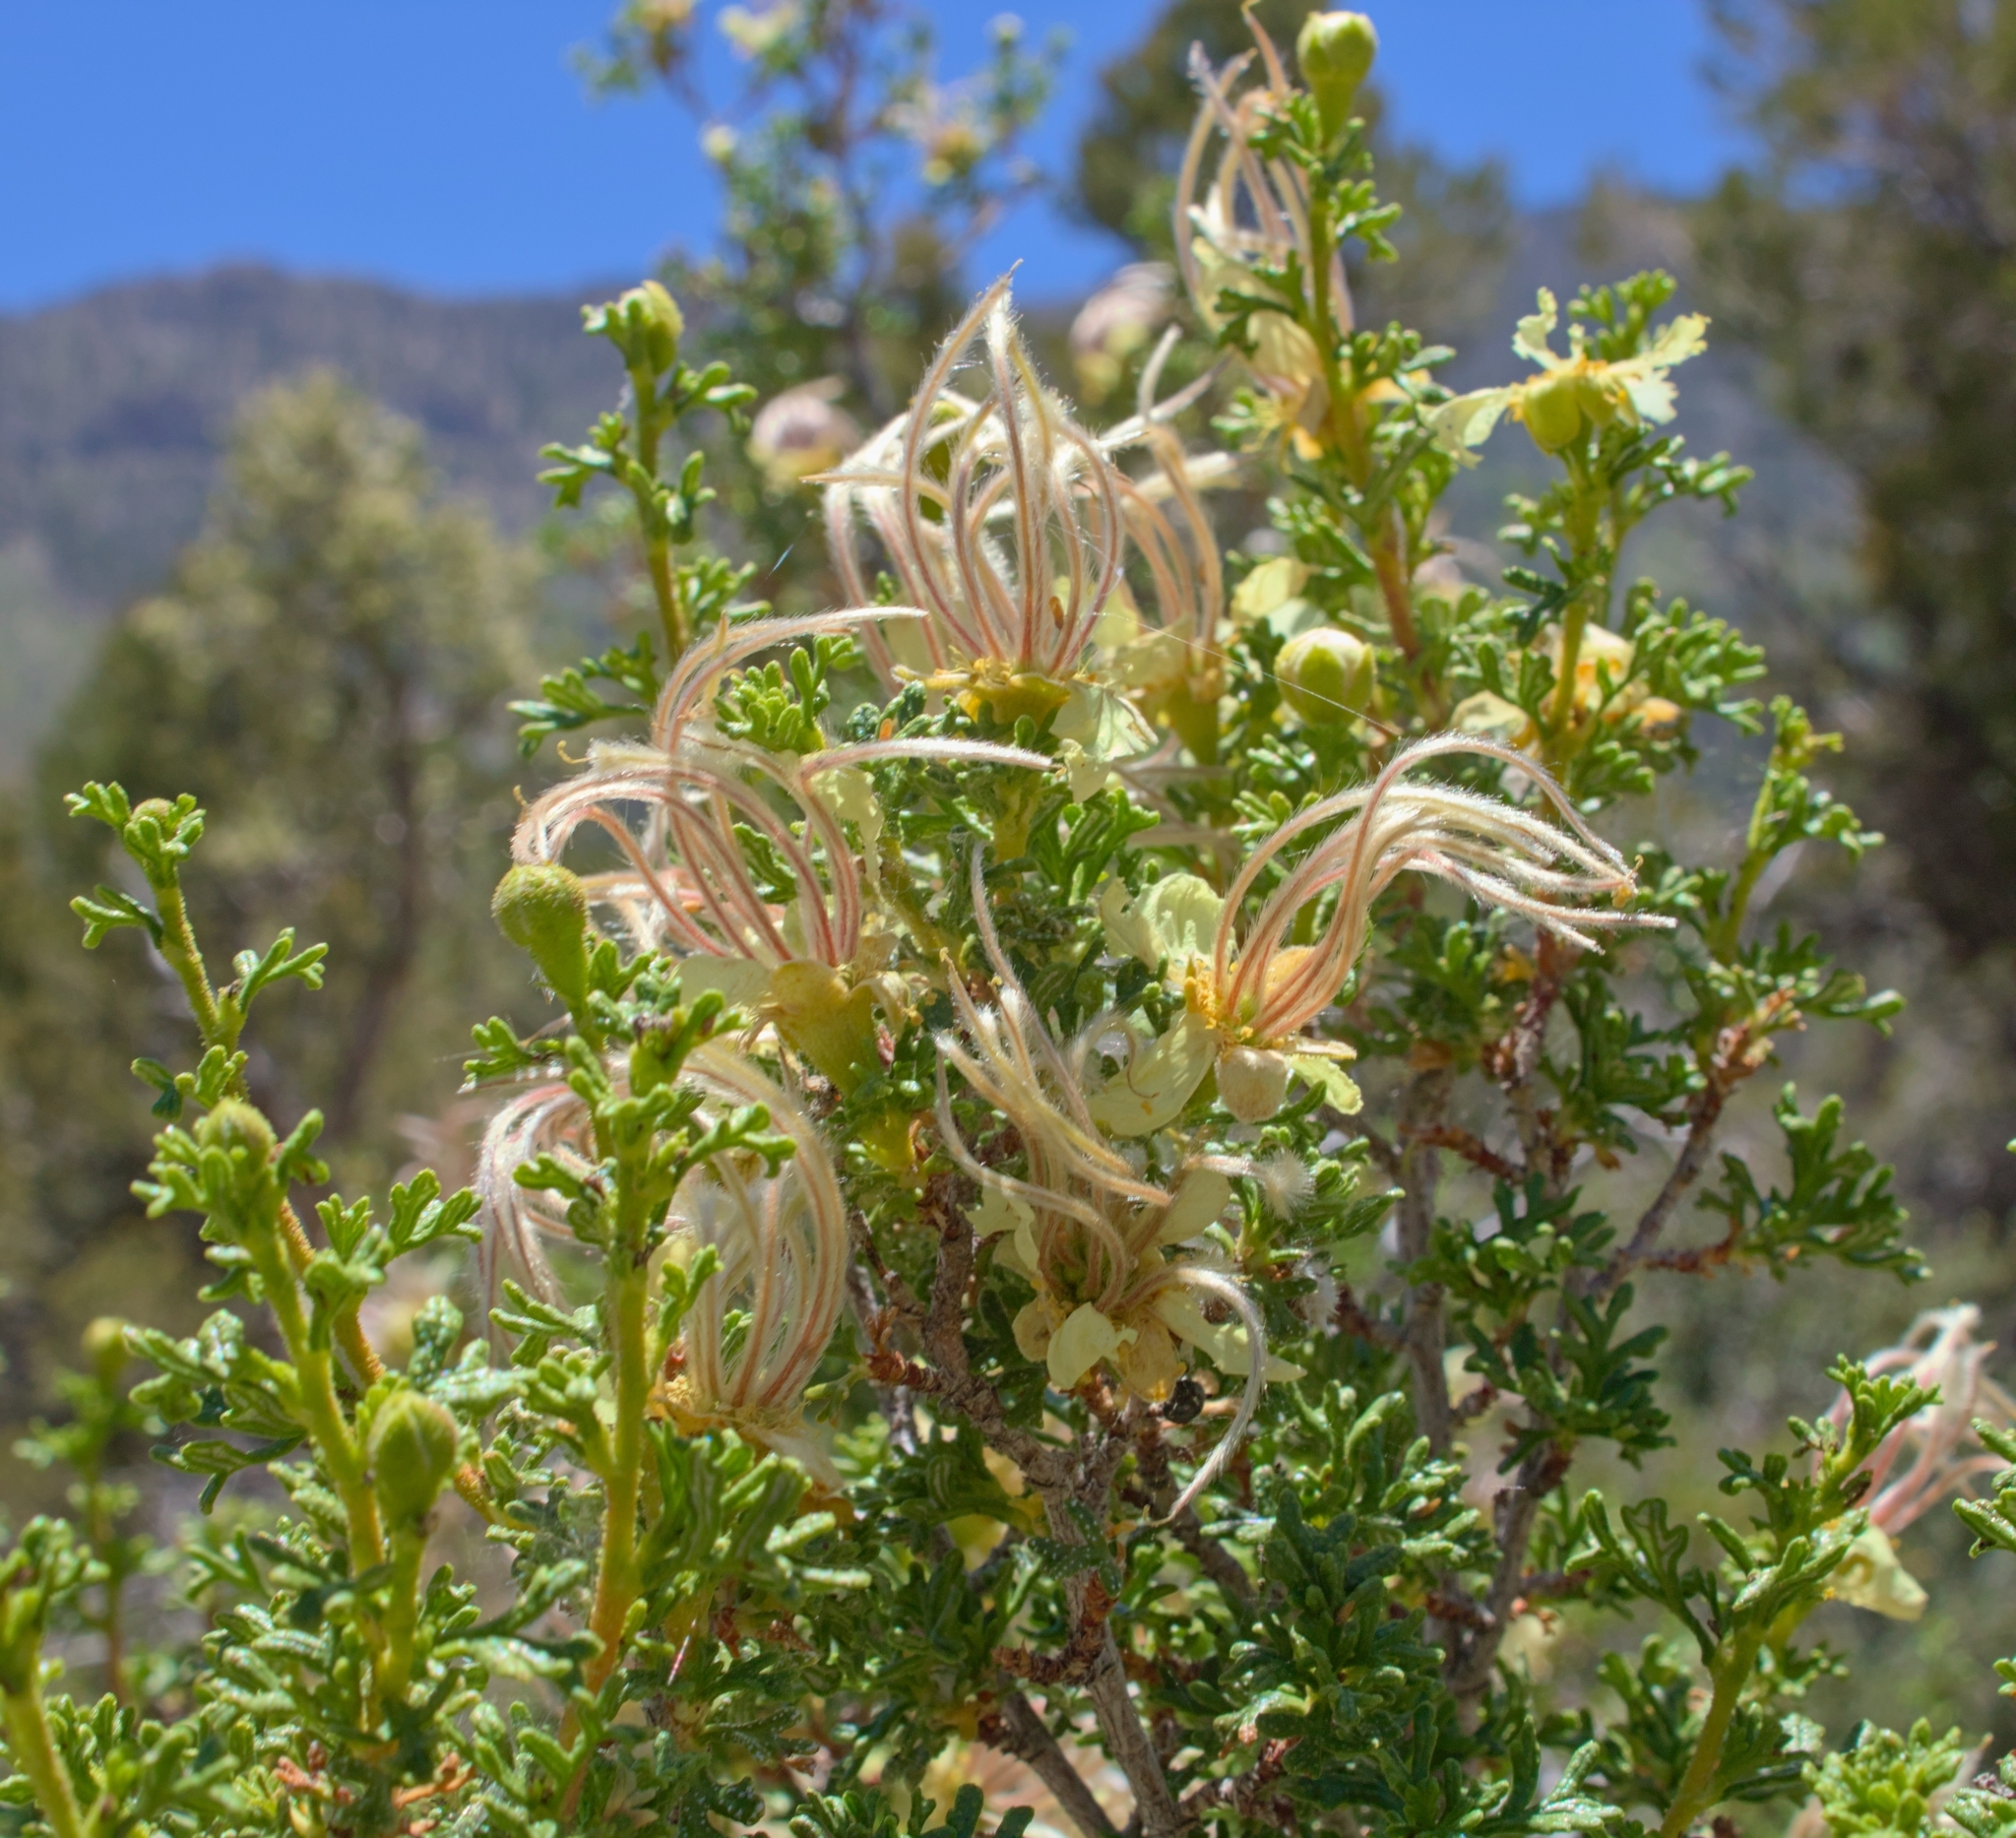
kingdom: Plantae
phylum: Tracheophyta
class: Magnoliopsida
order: Rosales
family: Rosaceae
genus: Purshia
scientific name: Purshia stansburiana
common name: Stansbury's cliffrose
